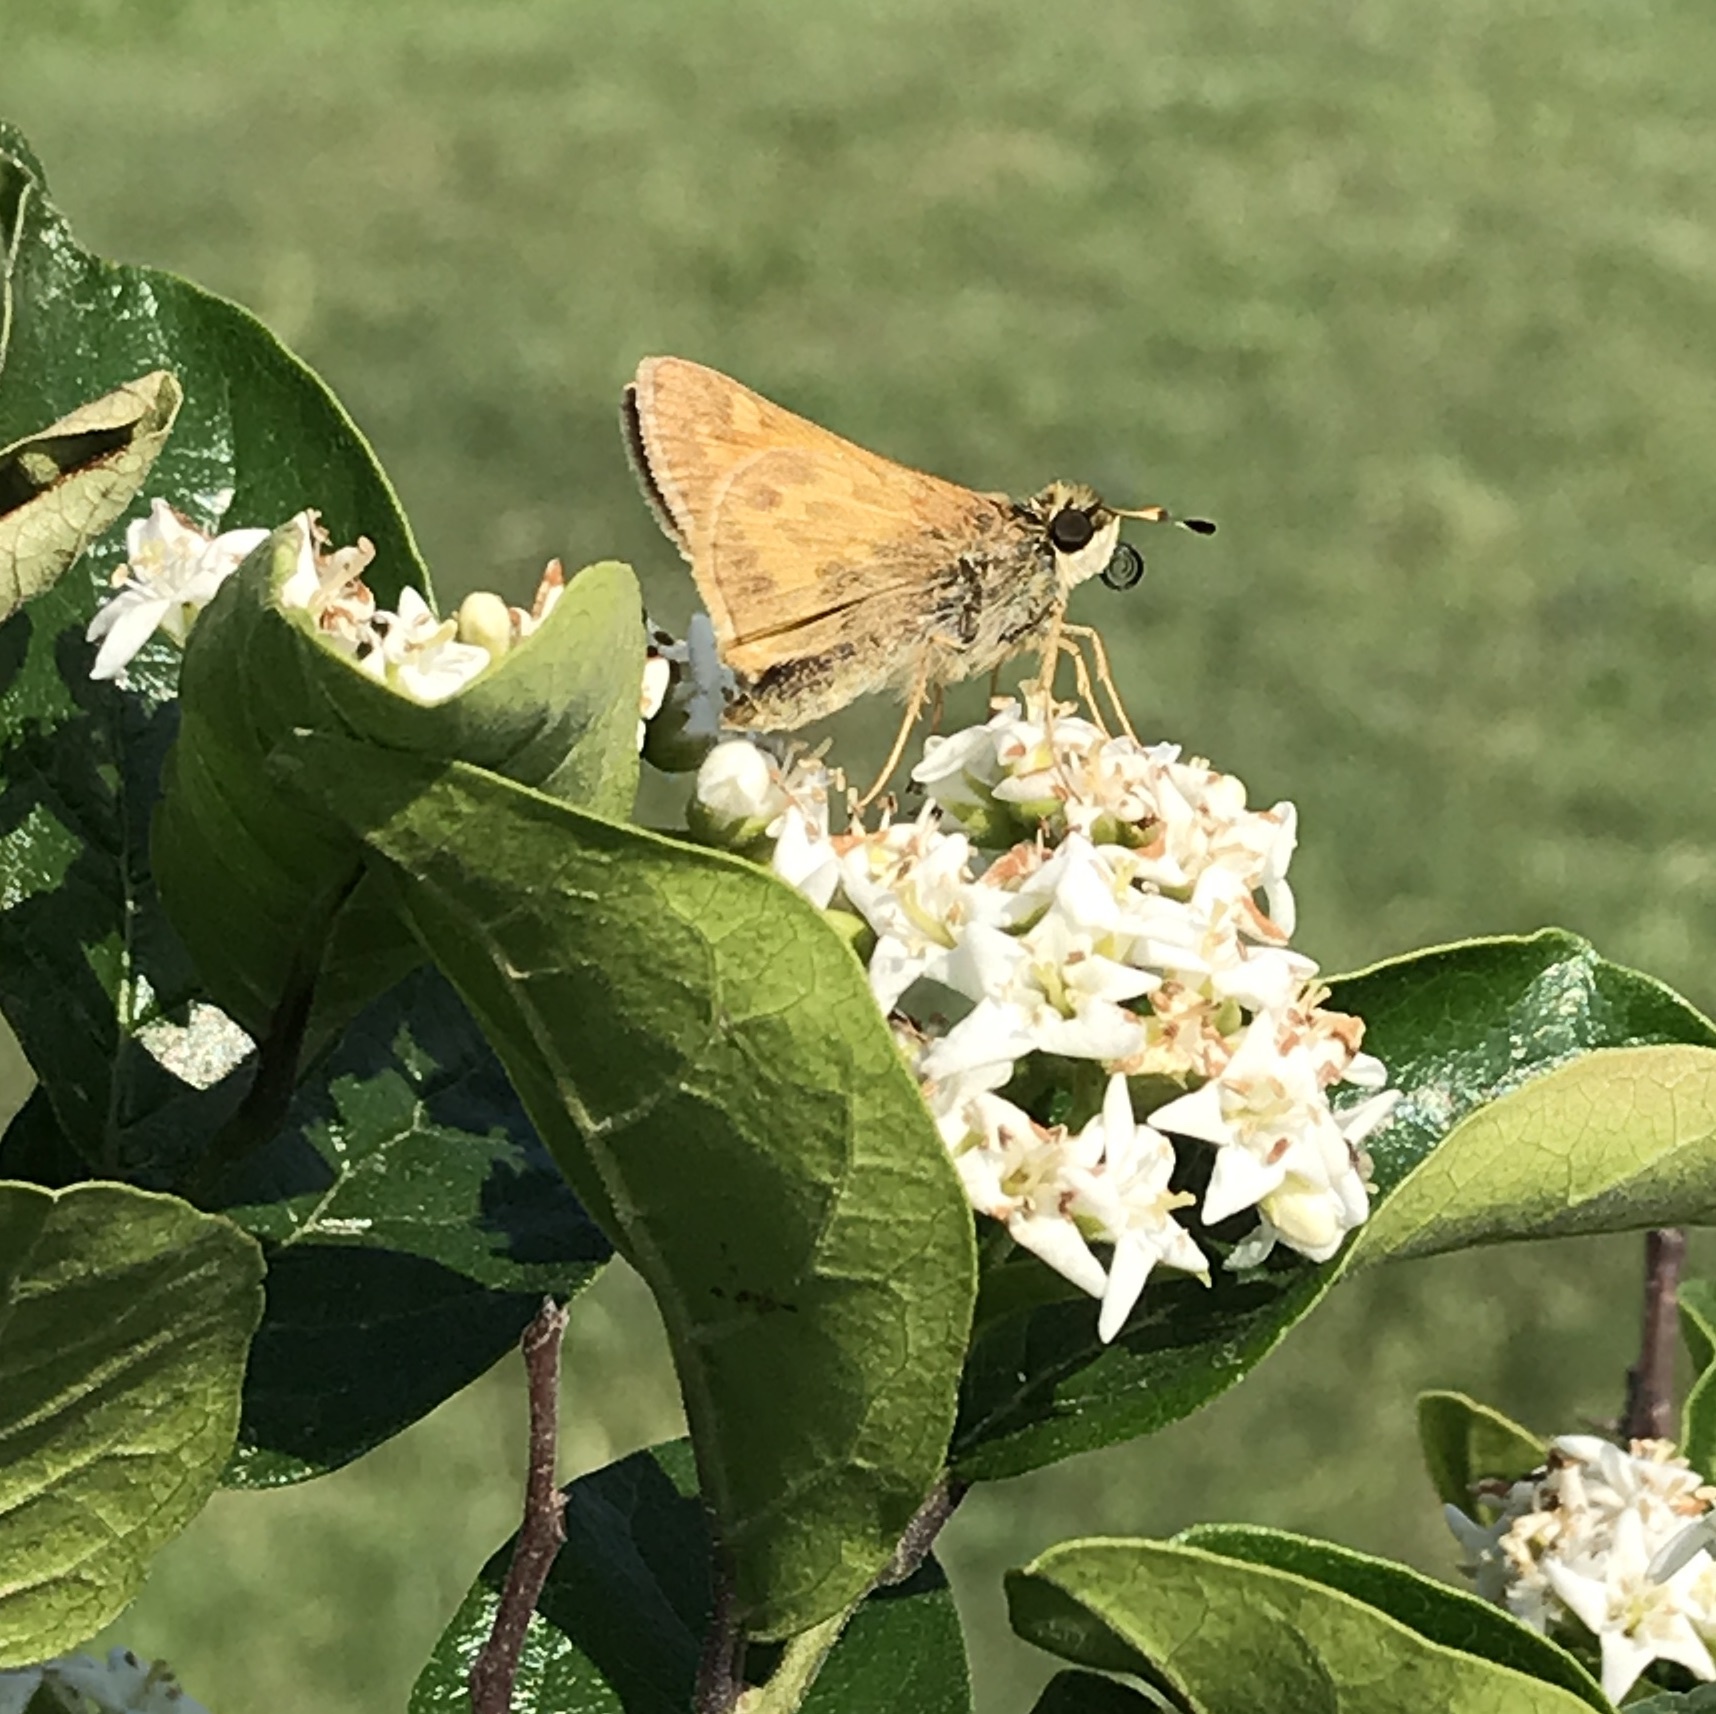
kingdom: Animalia
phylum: Arthropoda
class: Insecta
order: Lepidoptera
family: Hesperiidae
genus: Atalopedes
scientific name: Atalopedes
